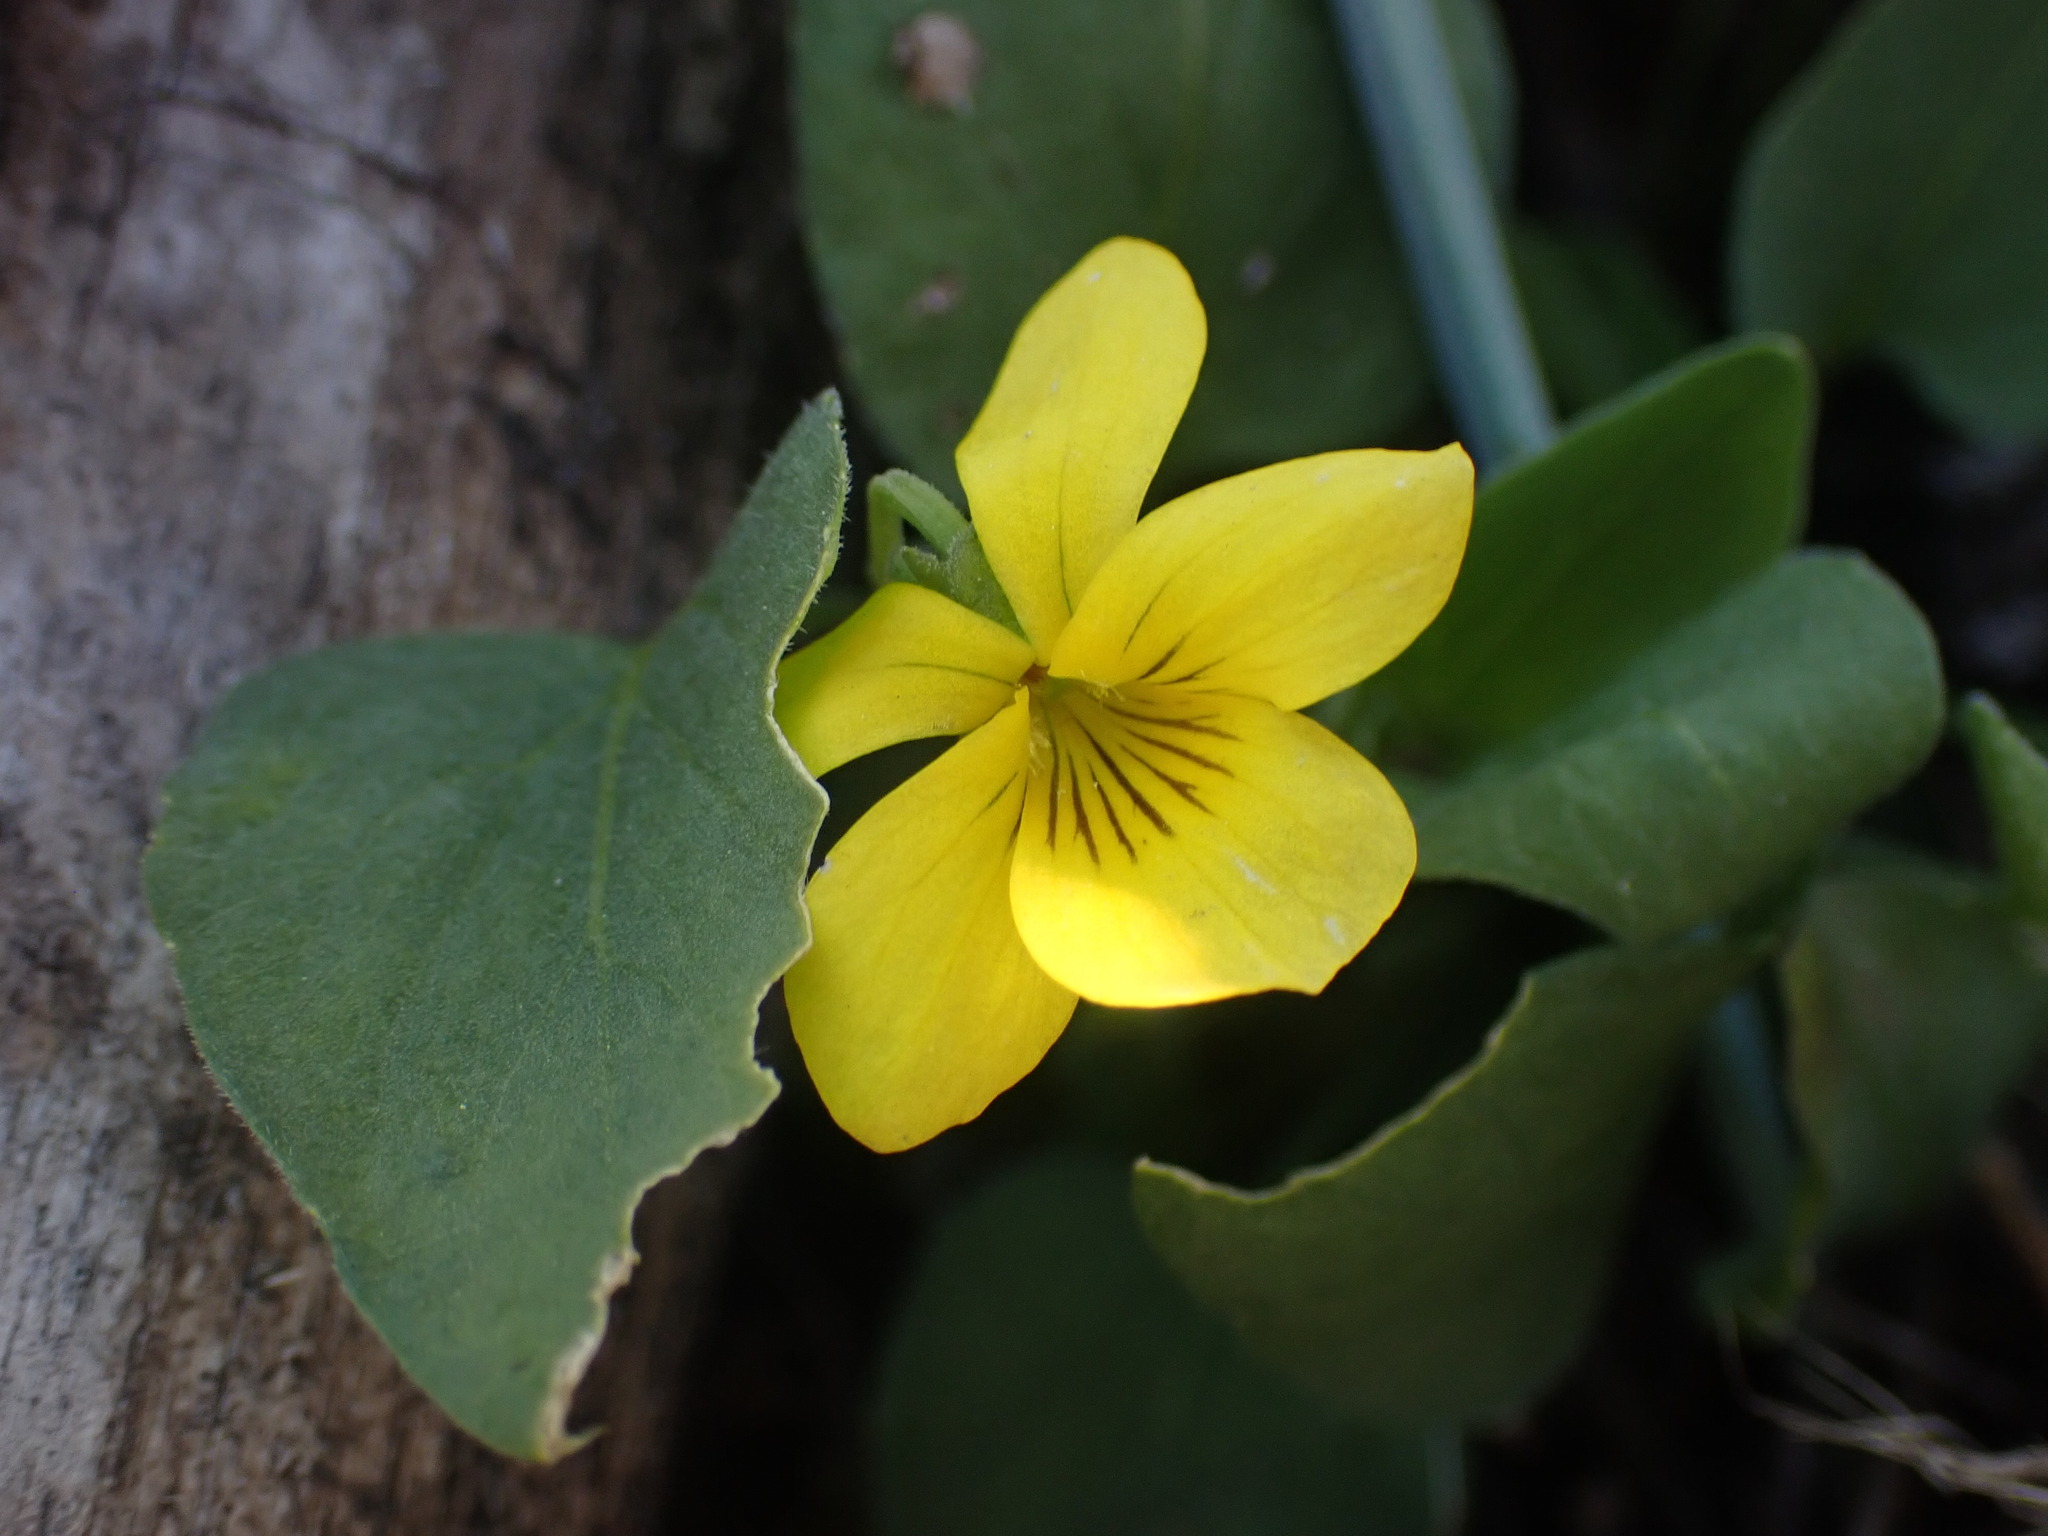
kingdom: Plantae
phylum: Tracheophyta
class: Magnoliopsida
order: Malpighiales
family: Violaceae
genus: Viola
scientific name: Viola vallicola
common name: Valley violet
